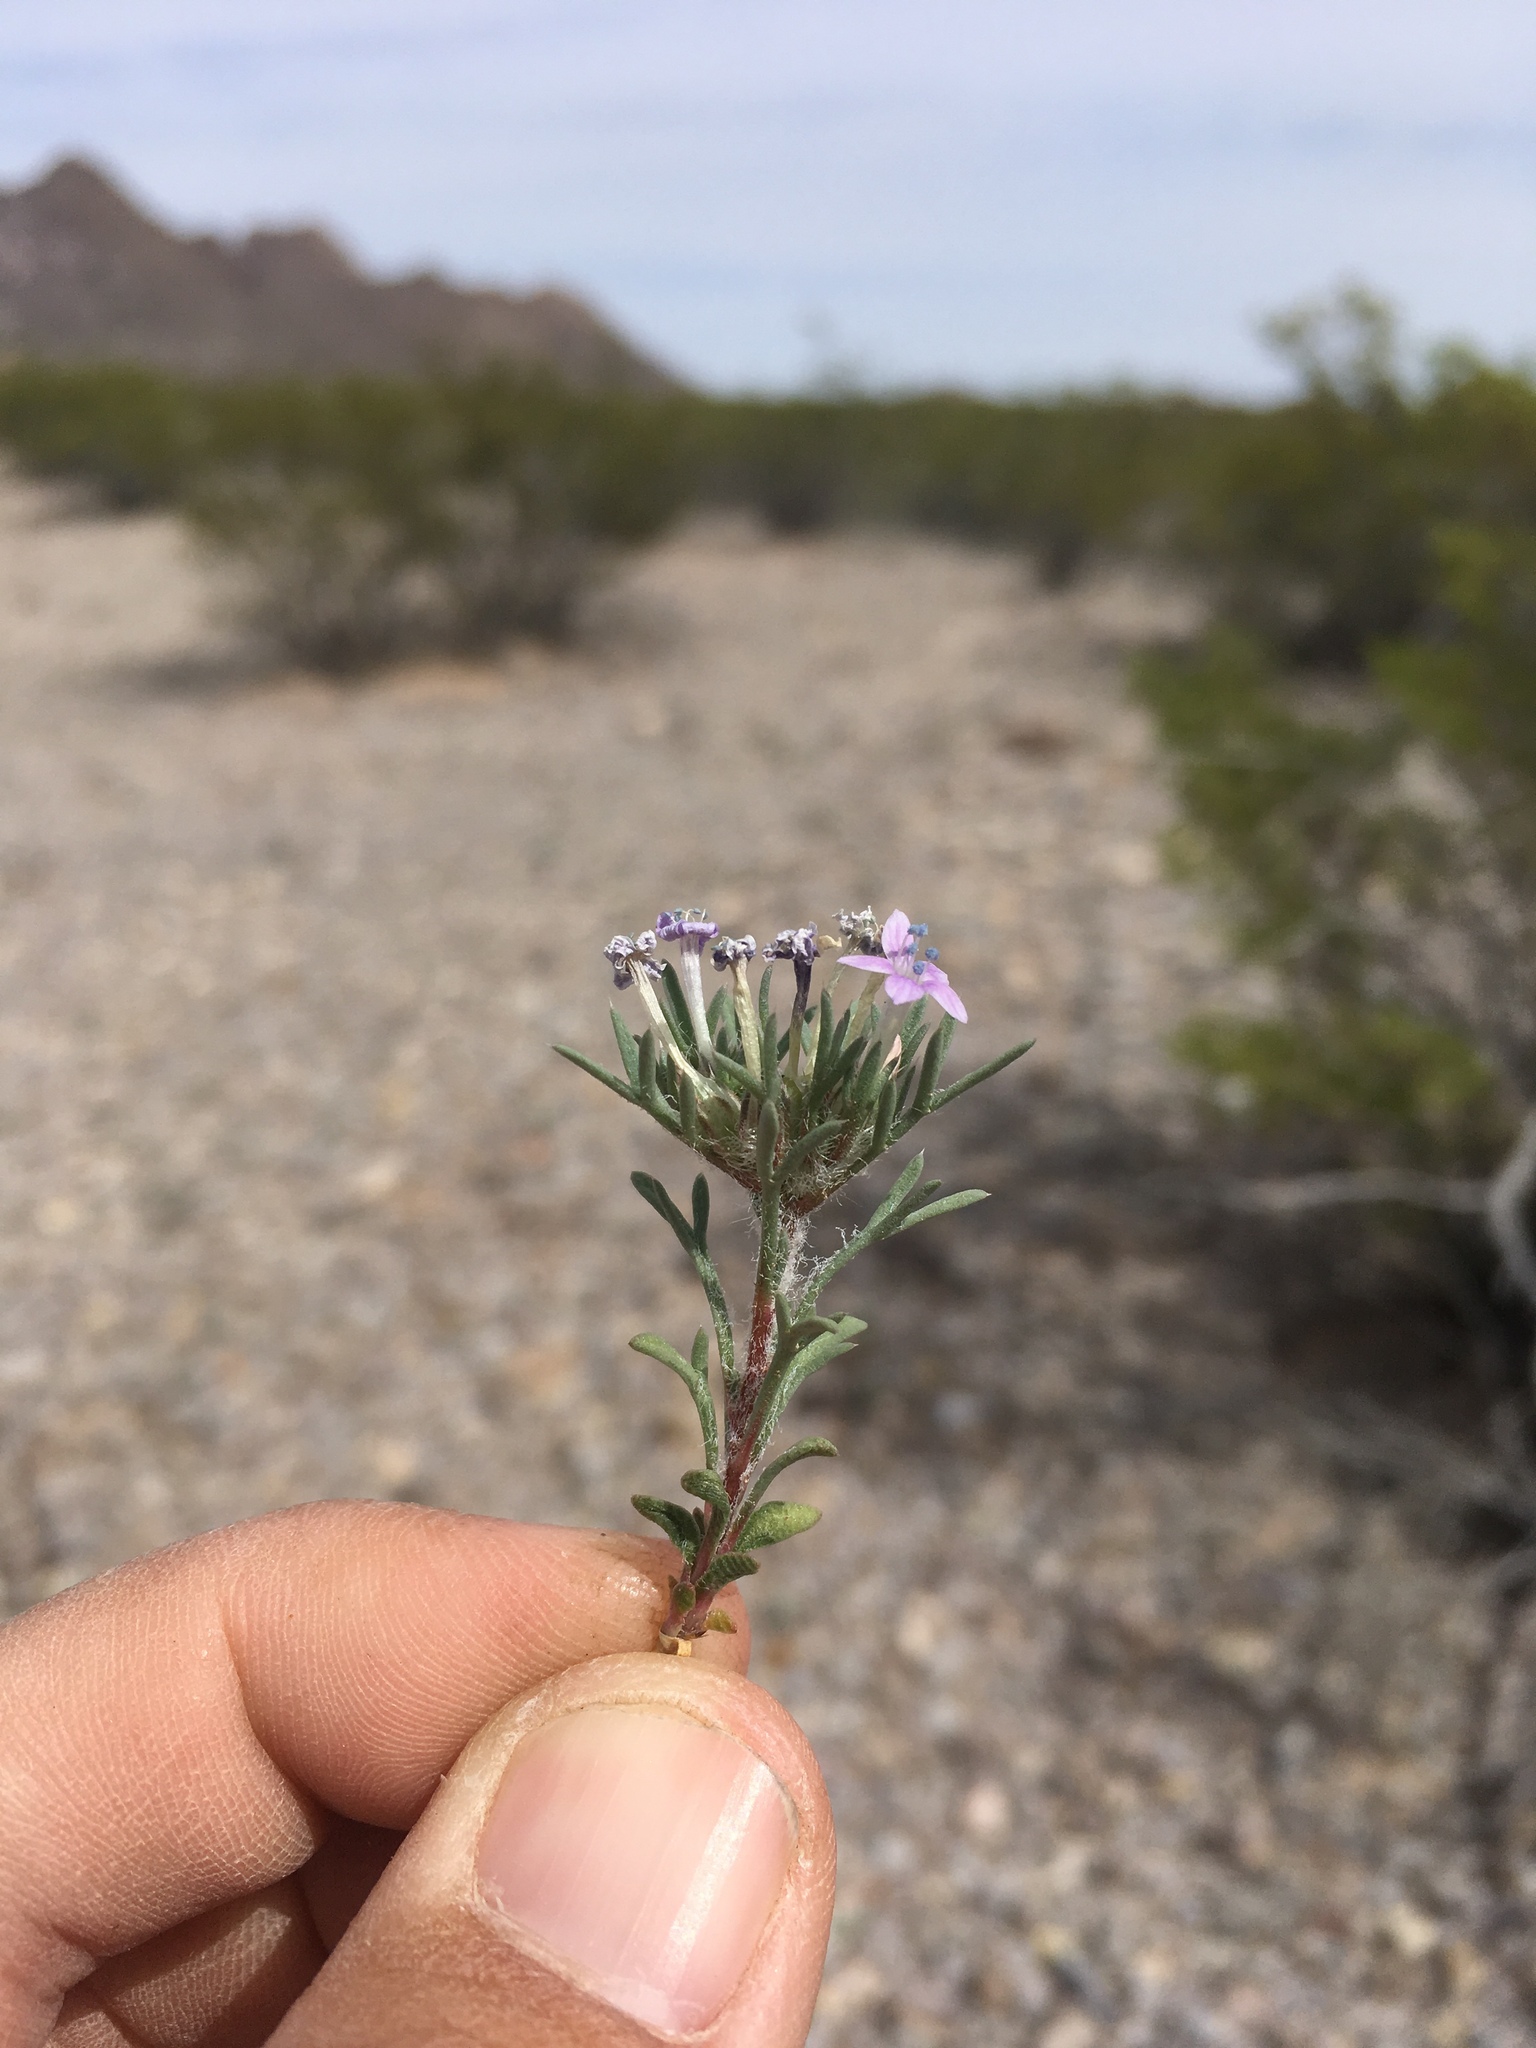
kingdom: Plantae
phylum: Tracheophyta
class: Magnoliopsida
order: Ericales
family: Polemoniaceae
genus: Ipomopsis
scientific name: Ipomopsis pumila
